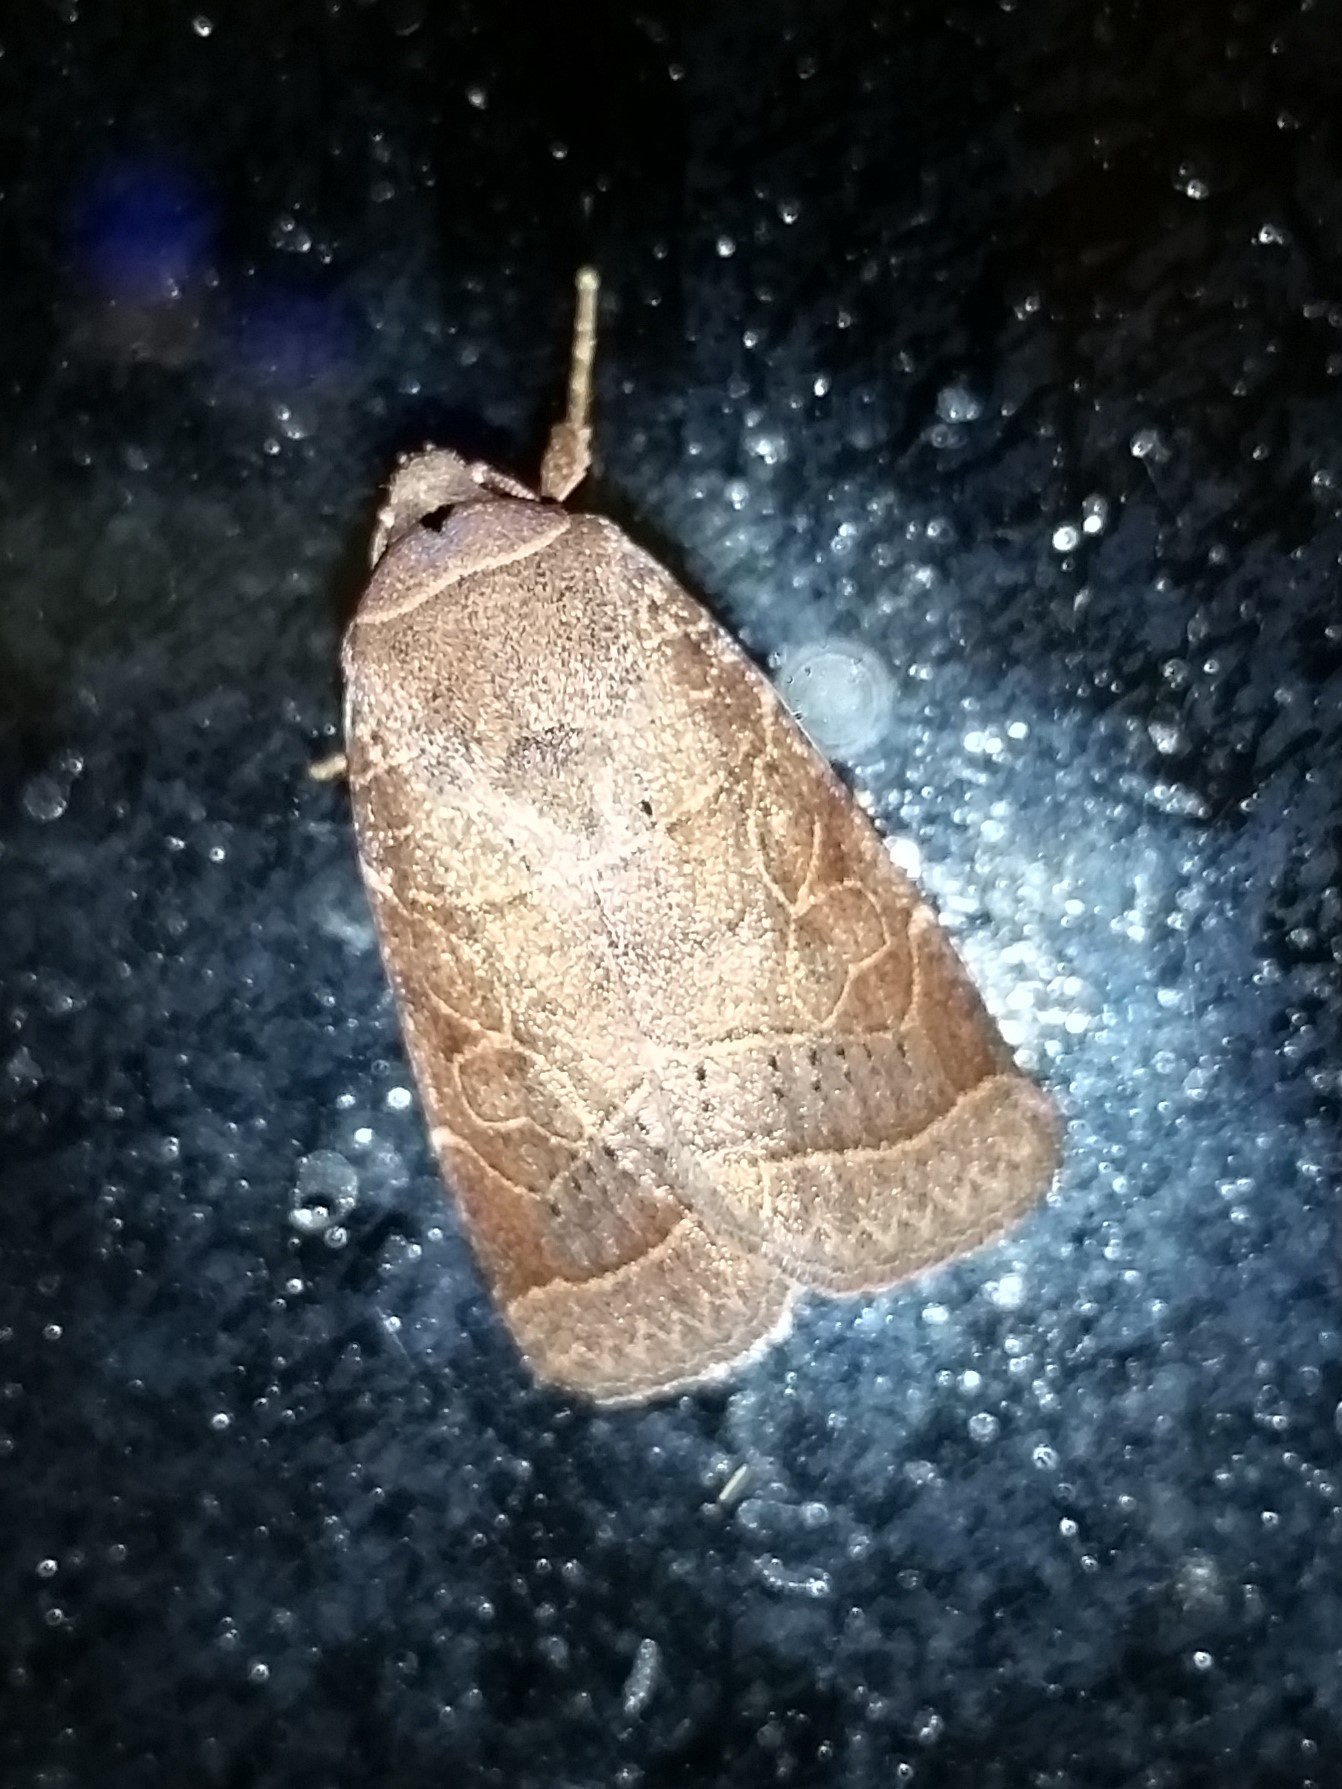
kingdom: Animalia
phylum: Arthropoda
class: Insecta
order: Lepidoptera
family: Noctuidae
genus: Orthodes
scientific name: Orthodes majuscula
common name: Rustic quaker
